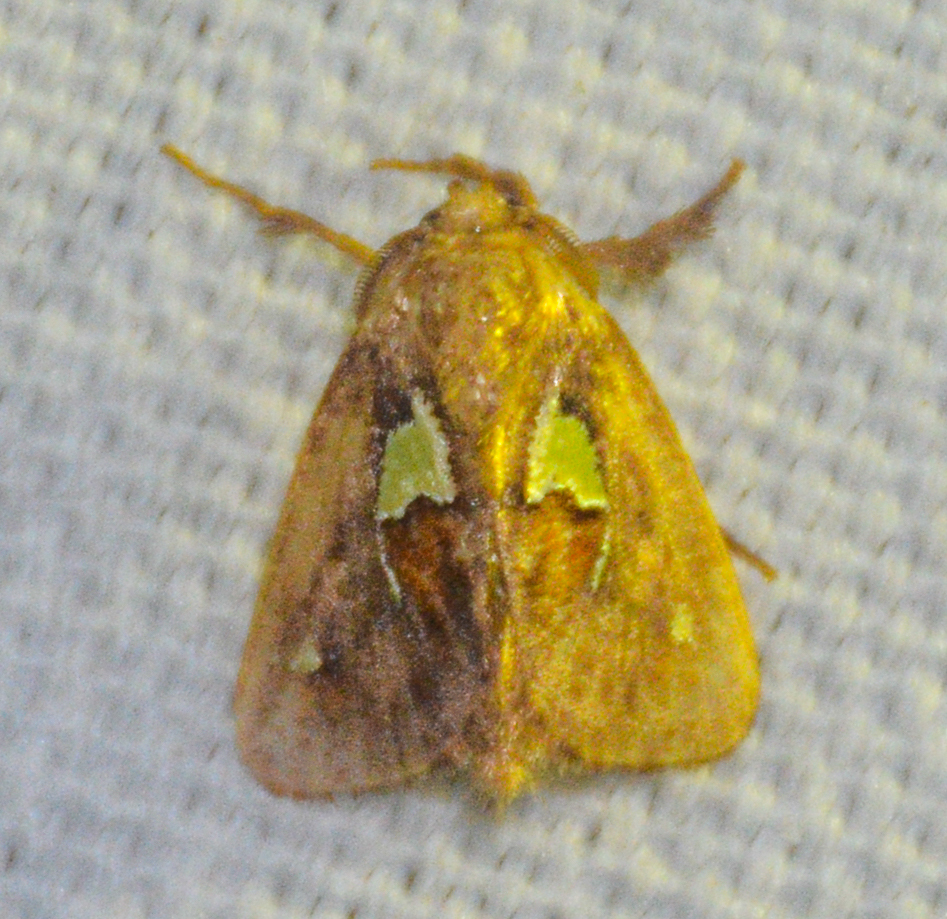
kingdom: Animalia
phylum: Arthropoda
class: Insecta
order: Lepidoptera
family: Limacodidae
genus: Euclea
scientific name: Euclea delphinii
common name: Spiny oak-slug moth
